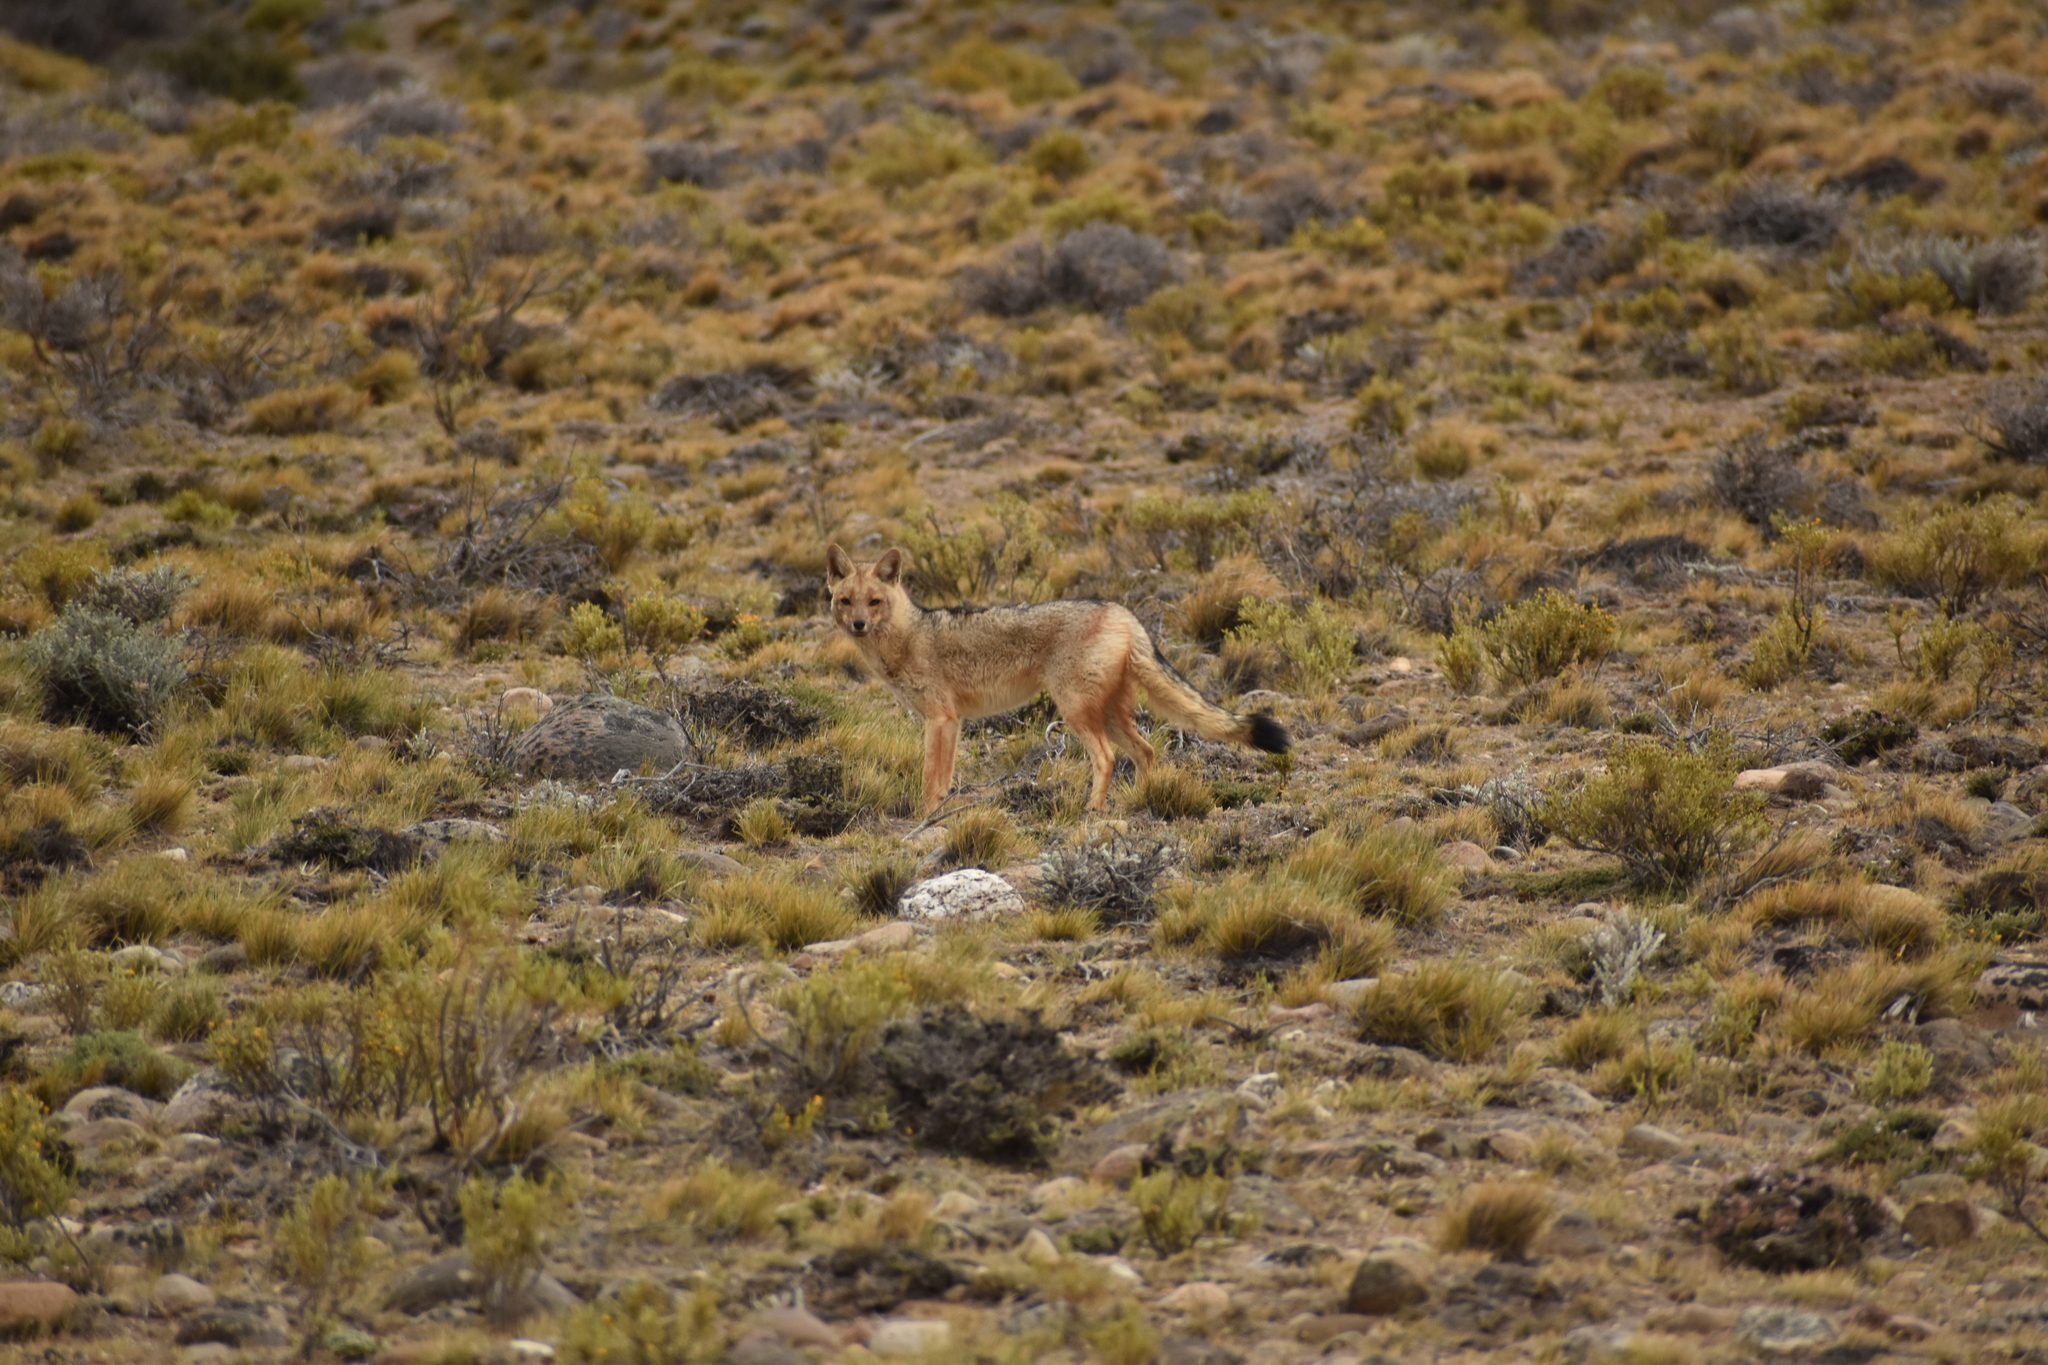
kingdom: Animalia
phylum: Chordata
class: Mammalia
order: Carnivora
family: Canidae
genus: Lycalopex
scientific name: Lycalopex culpaeus
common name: Culpeo
